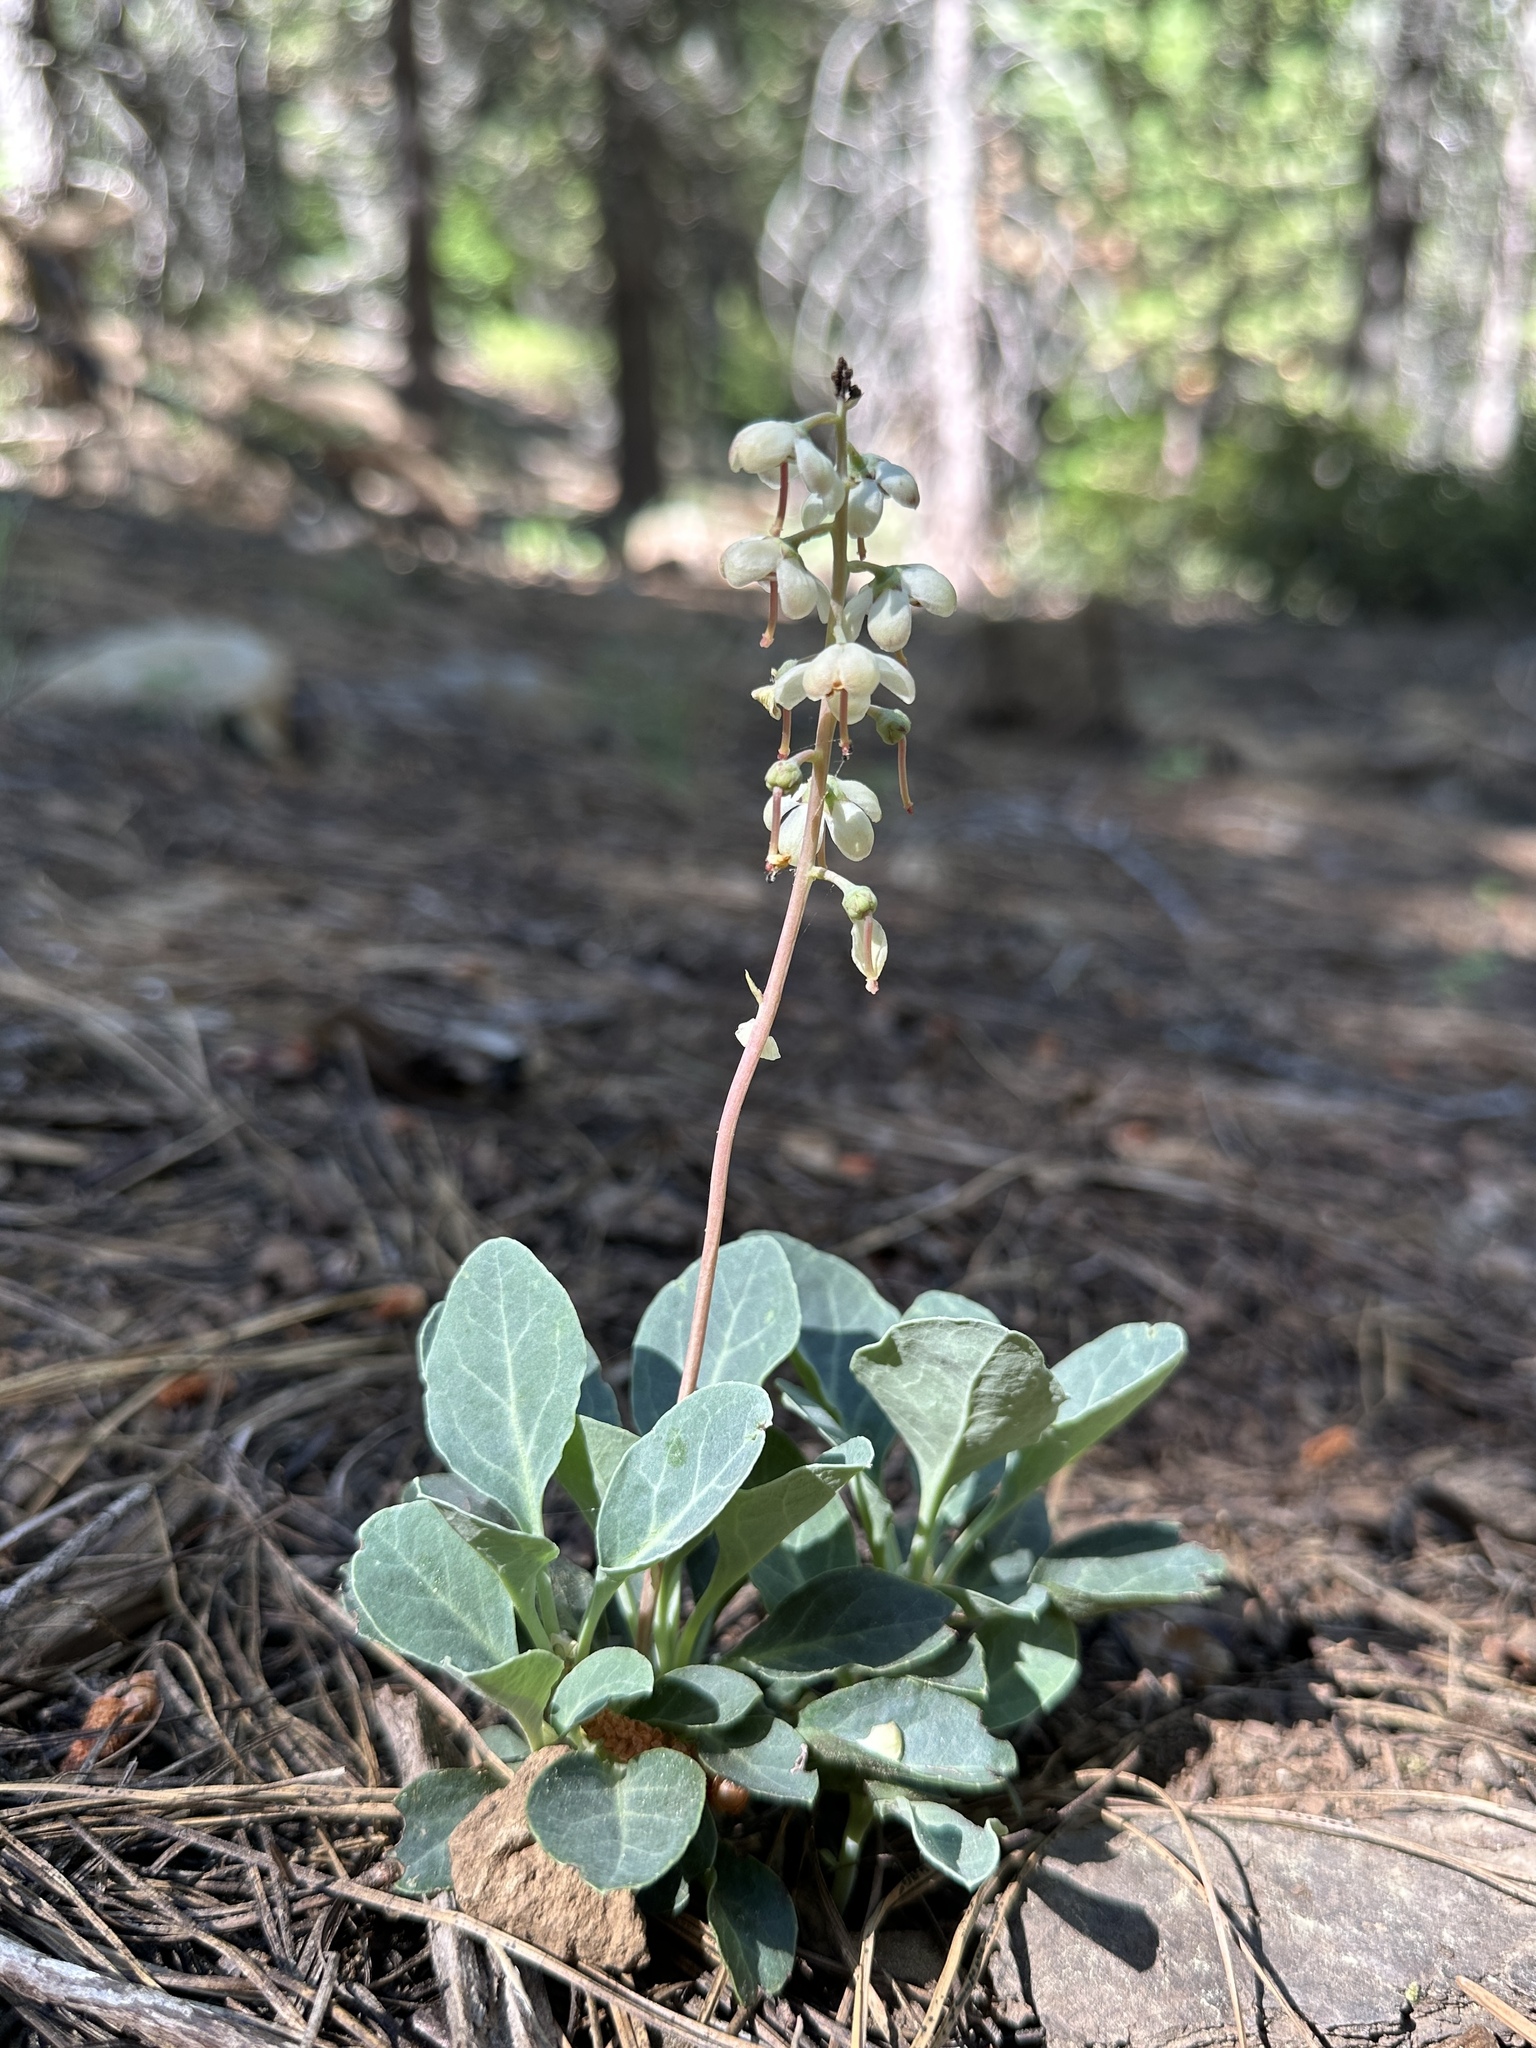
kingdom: Plantae
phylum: Tracheophyta
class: Magnoliopsida
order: Ericales
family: Ericaceae
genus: Pyrola
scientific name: Pyrola dentata
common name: Tooth-leaved wintergreen
